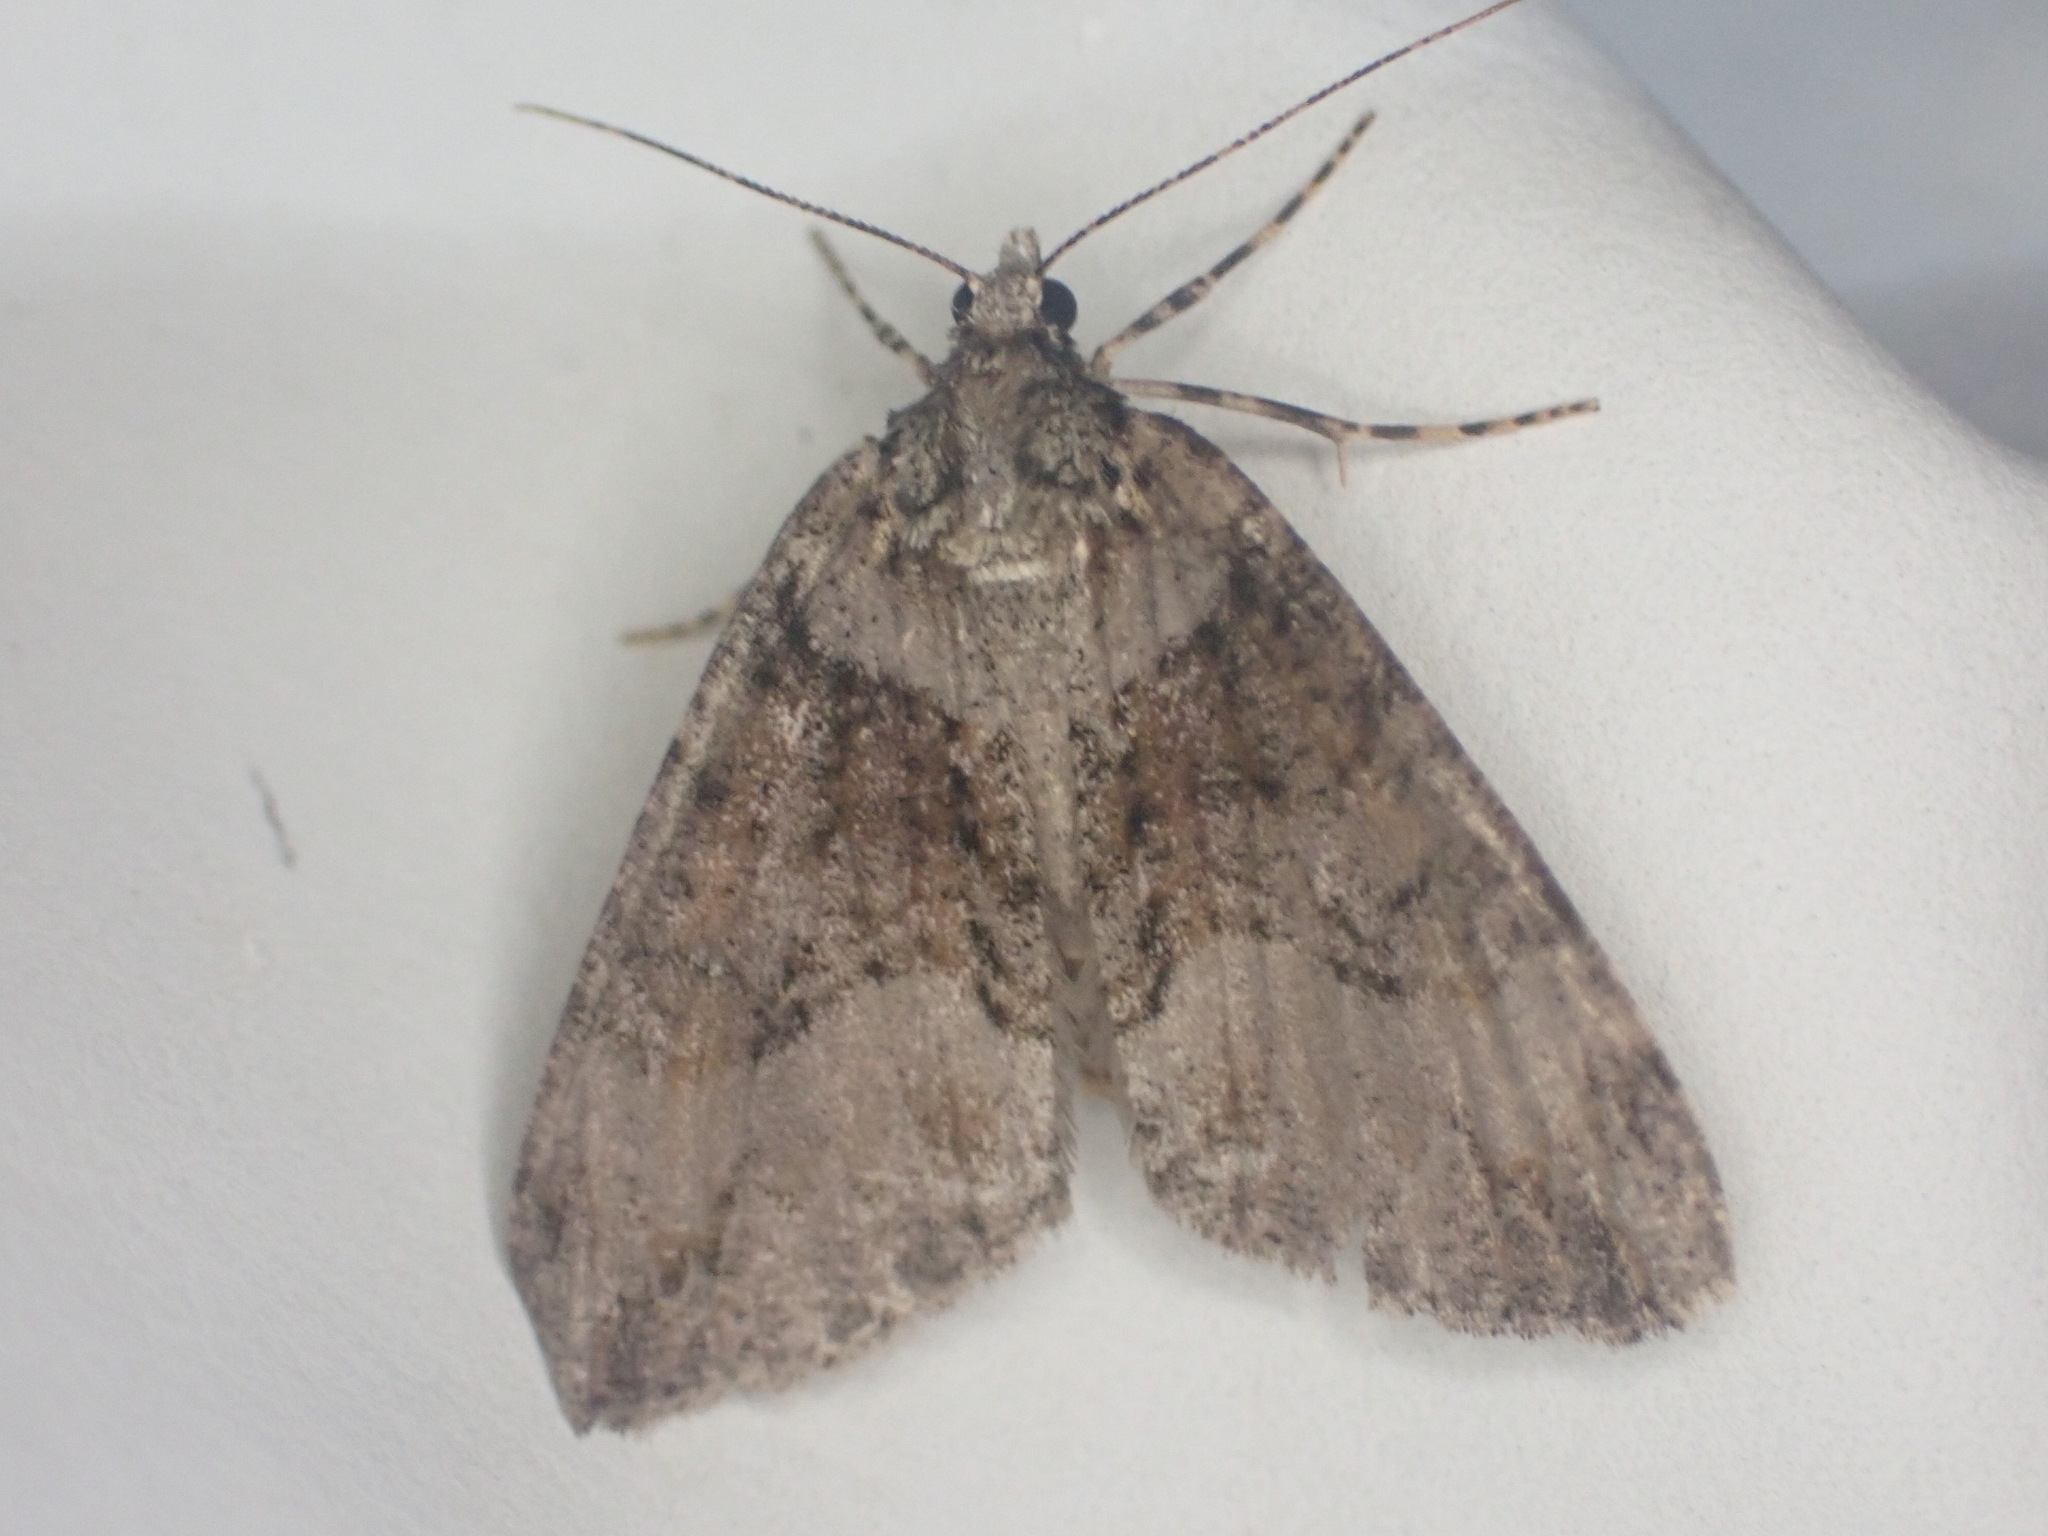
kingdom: Animalia
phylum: Arthropoda
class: Insecta
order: Lepidoptera
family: Geometridae
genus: Pseudocoremia
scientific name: Pseudocoremia suavis
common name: Common forest looper
